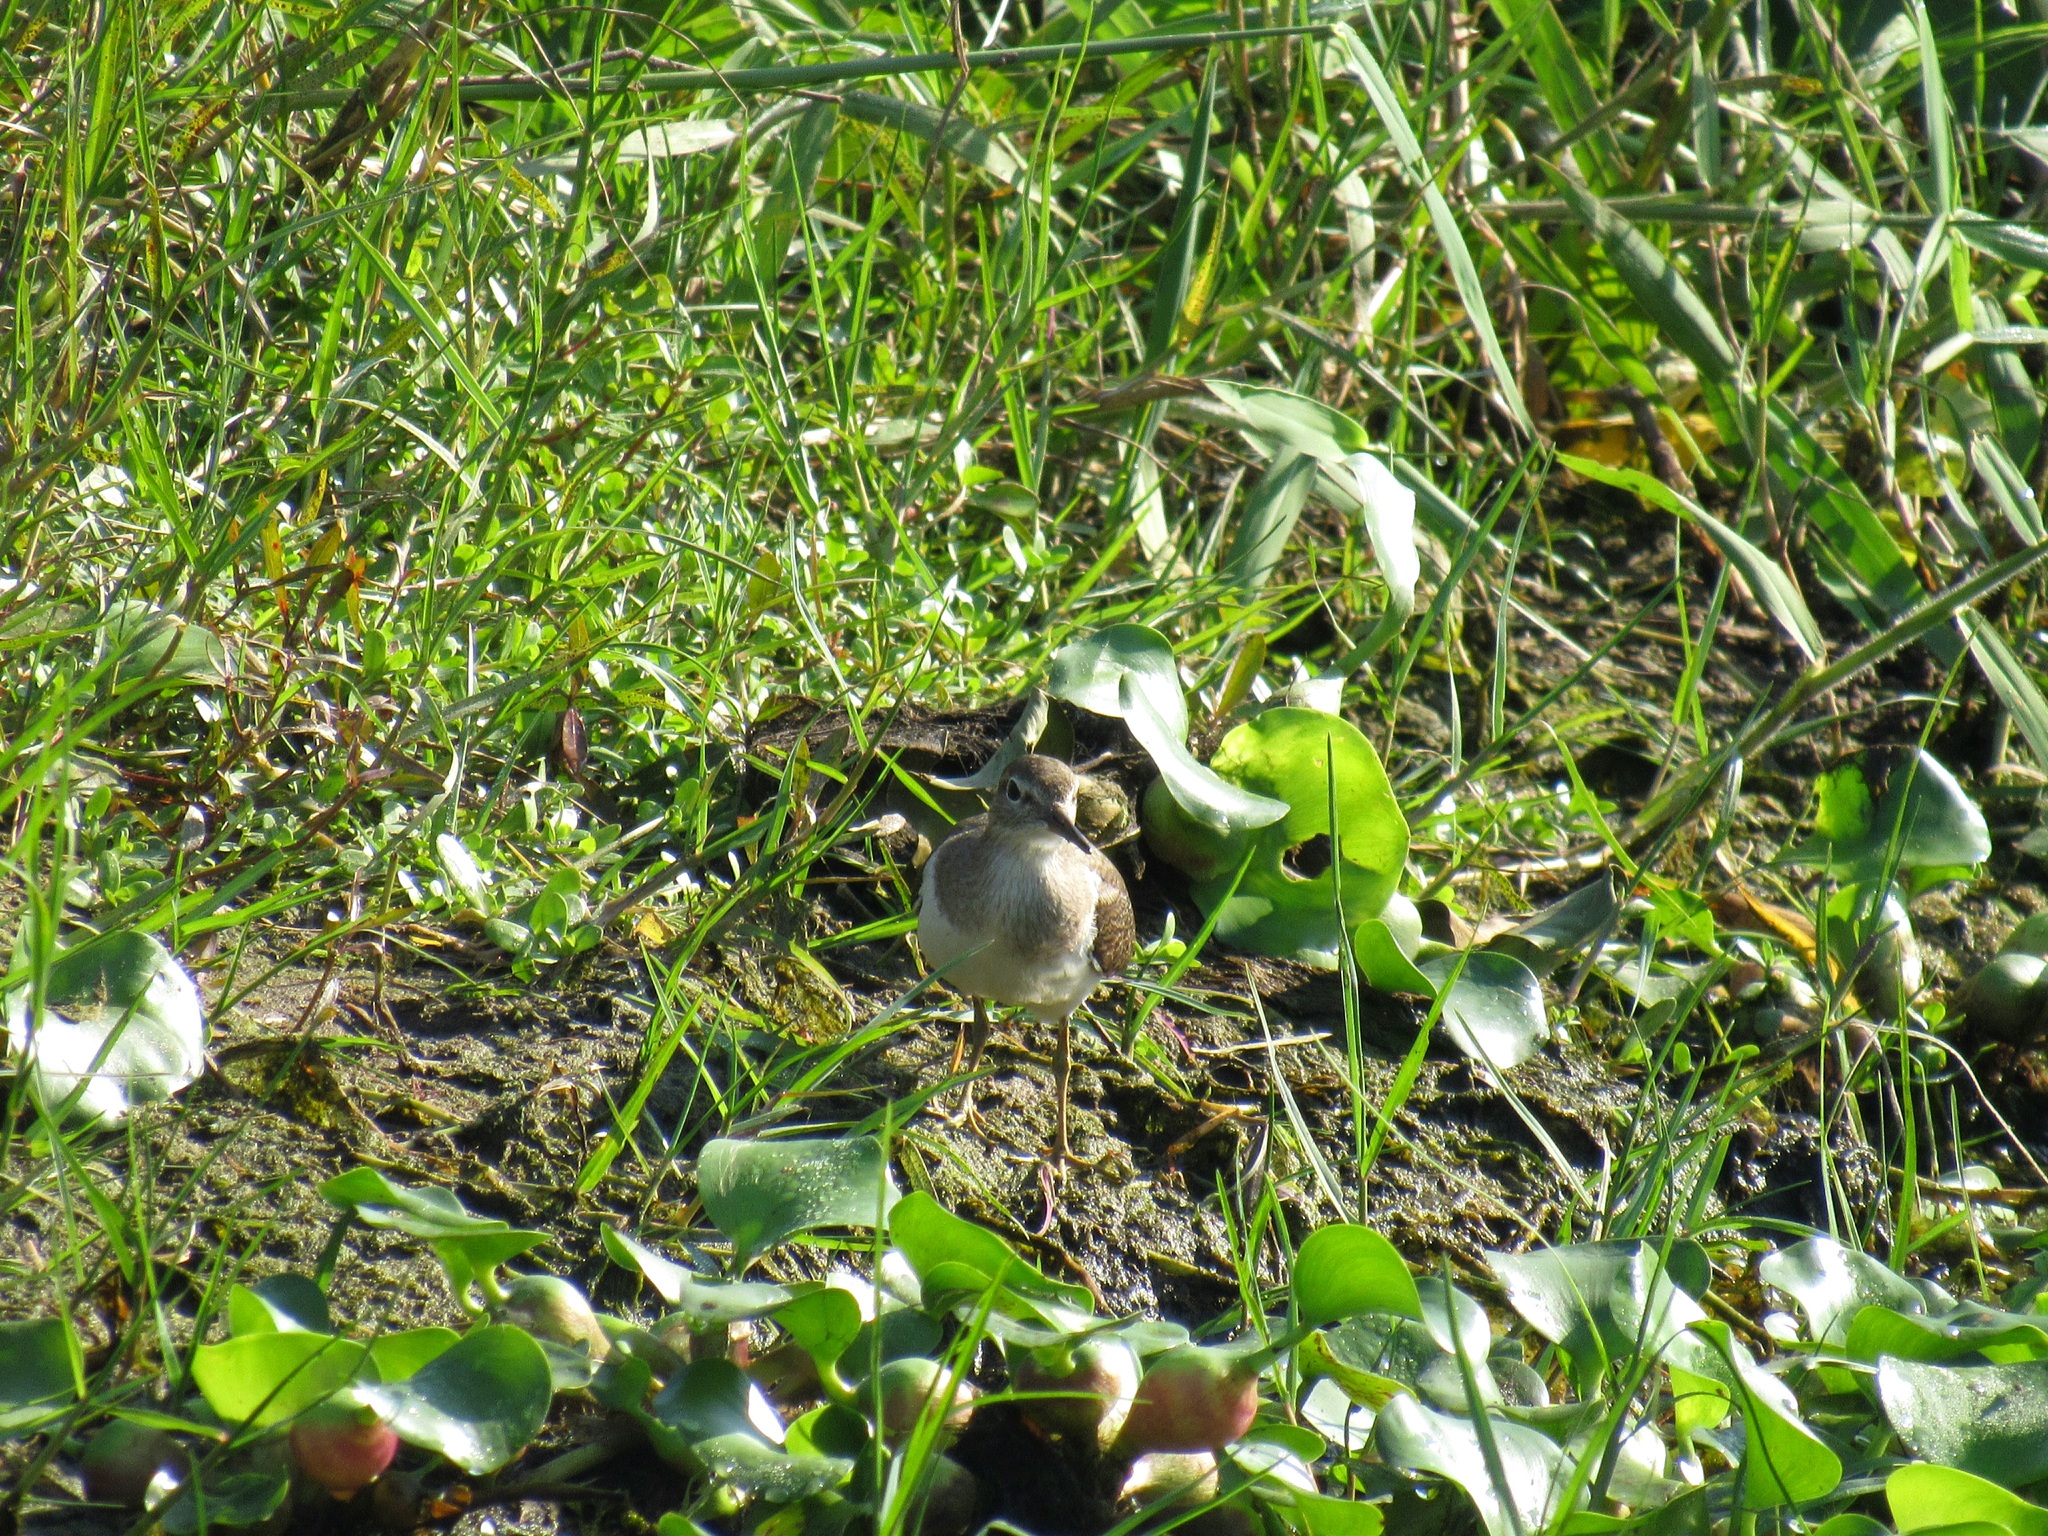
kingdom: Animalia
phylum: Chordata
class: Aves
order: Charadriiformes
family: Scolopacidae
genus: Actitis
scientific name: Actitis hypoleucos
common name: Common sandpiper
